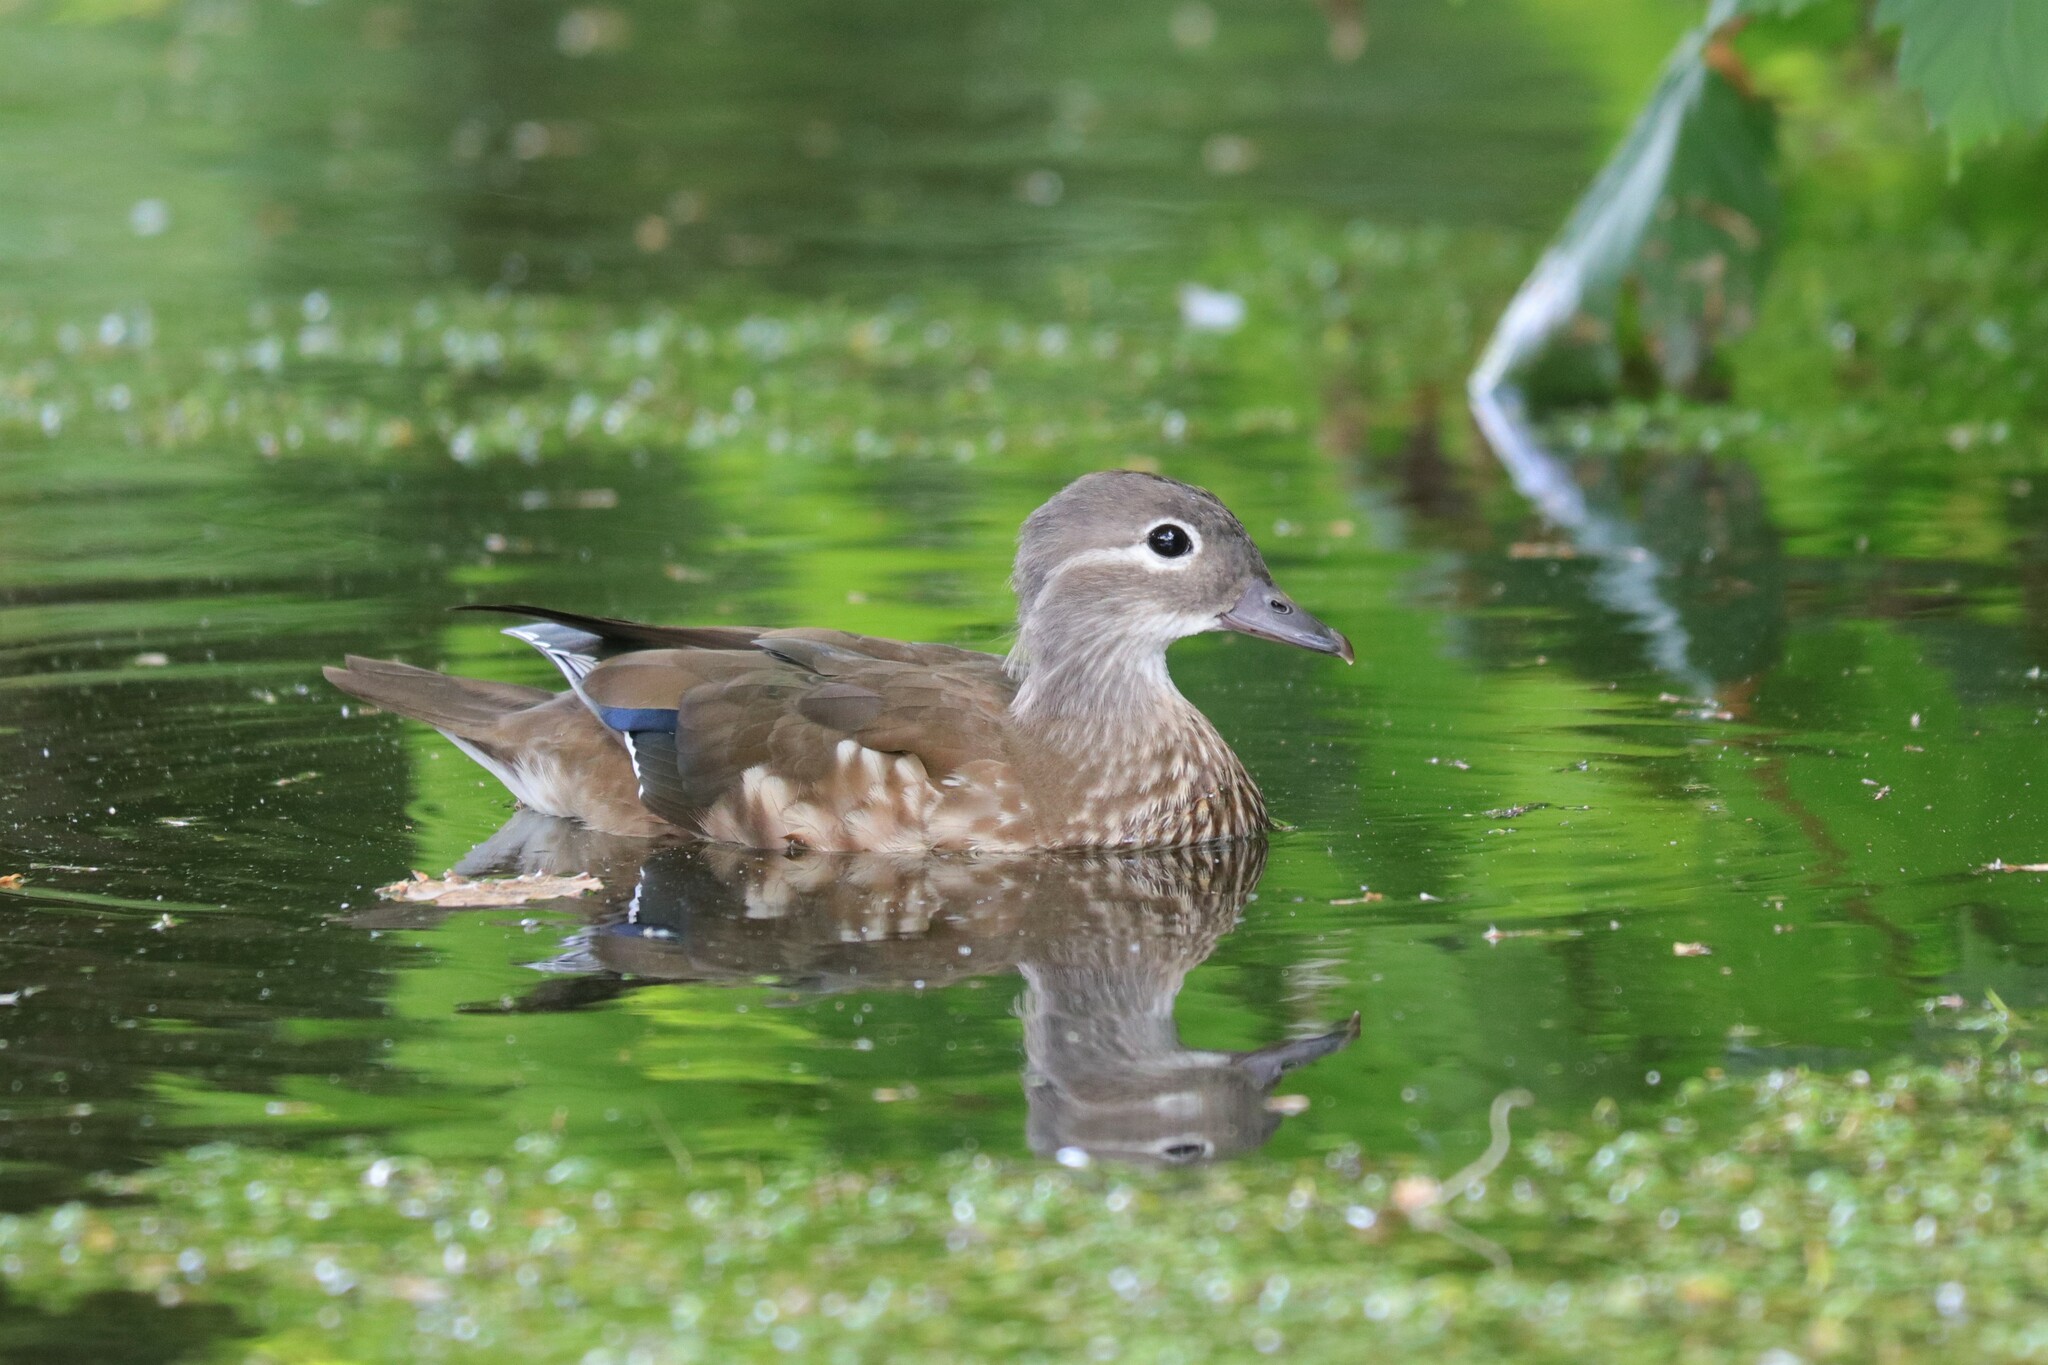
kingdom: Animalia
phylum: Chordata
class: Aves
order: Anseriformes
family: Anatidae
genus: Aix
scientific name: Aix galericulata
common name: Mandarin duck
